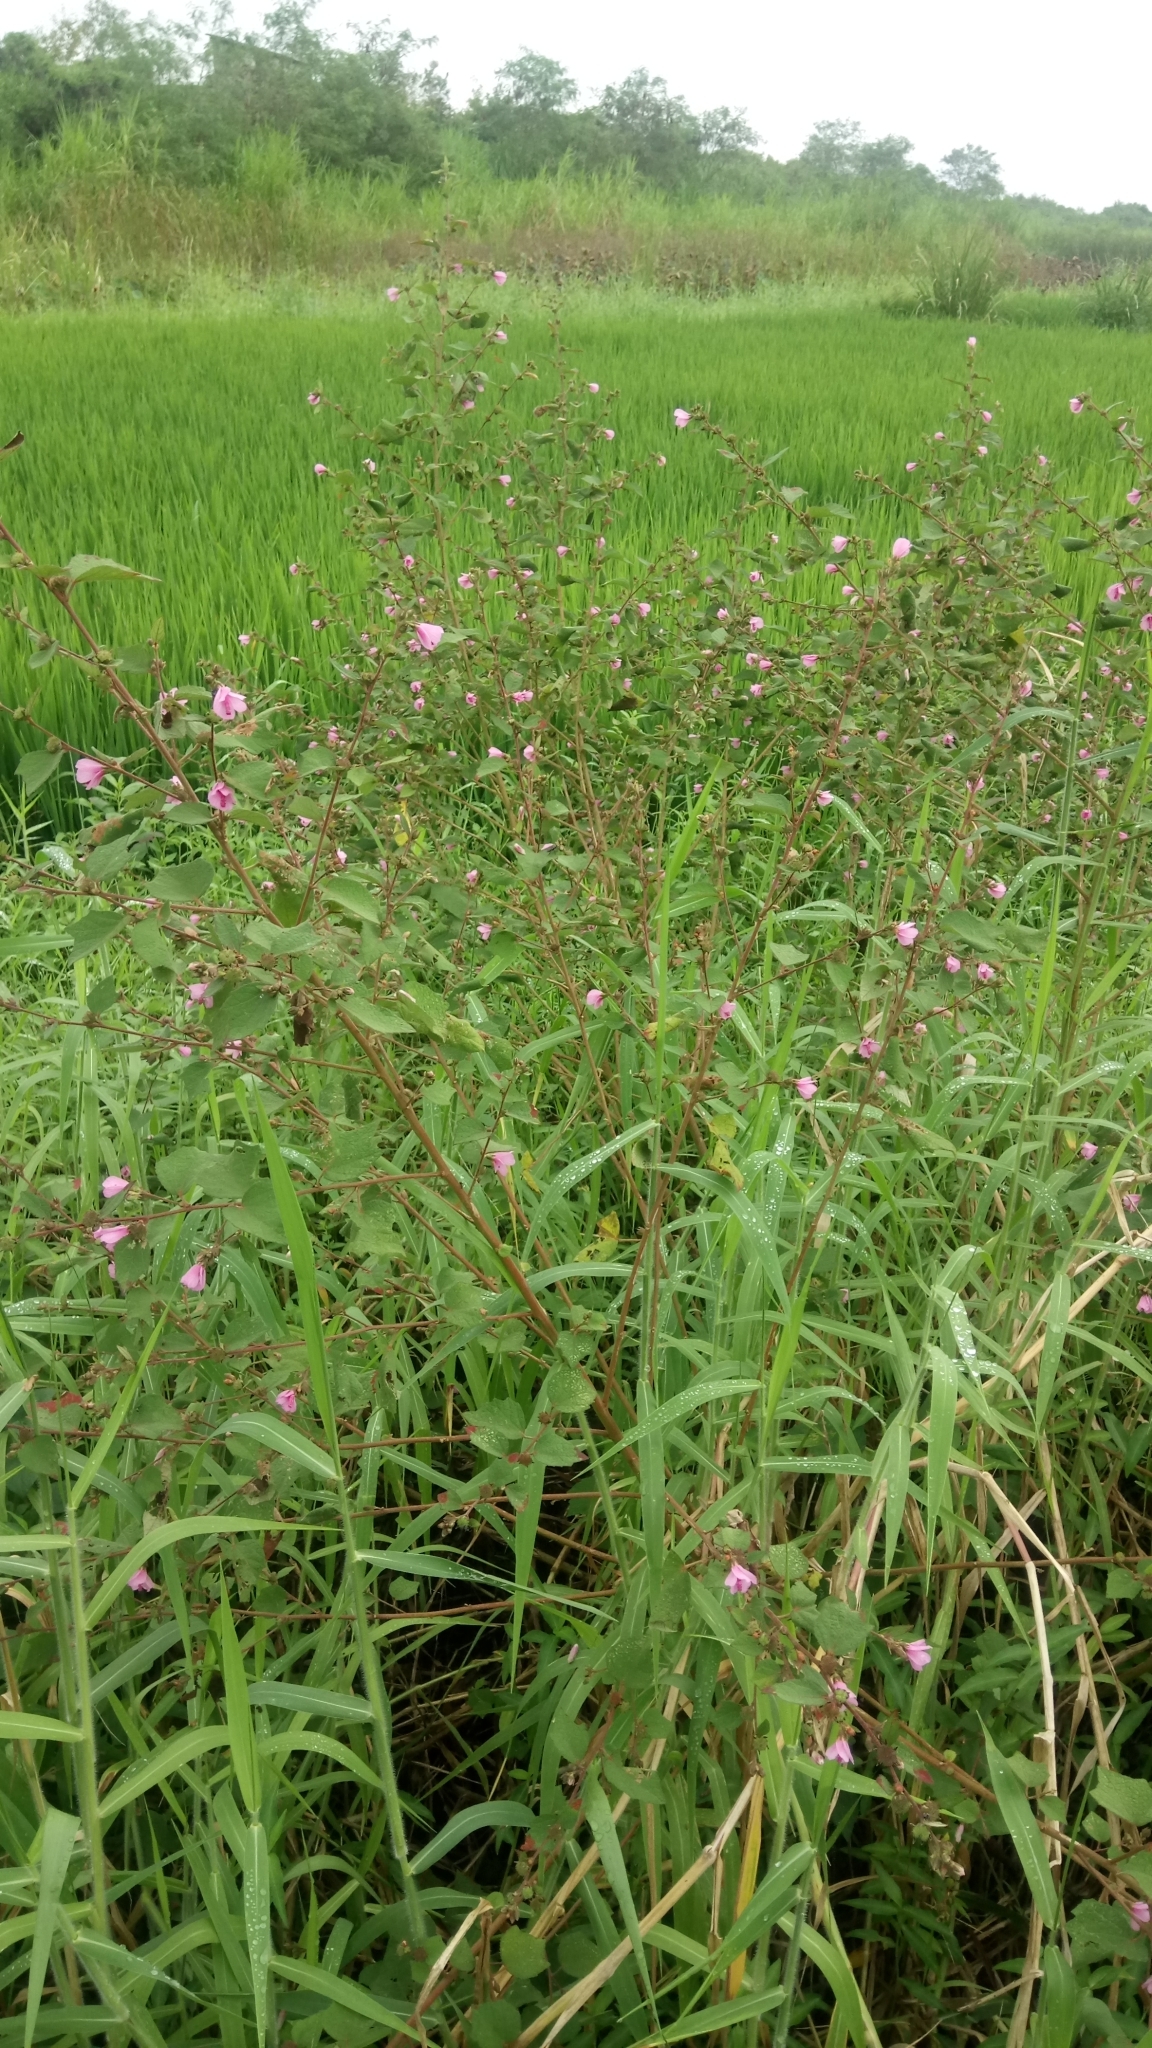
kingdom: Plantae
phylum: Tracheophyta
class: Magnoliopsida
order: Malvales
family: Malvaceae
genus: Urena
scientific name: Urena lobata
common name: Caesarweed
